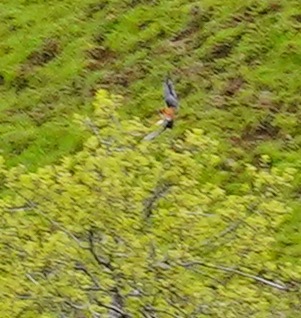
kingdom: Animalia
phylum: Chordata
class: Aves
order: Falconiformes
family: Falconidae
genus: Falco
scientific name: Falco sparverius
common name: American kestrel
